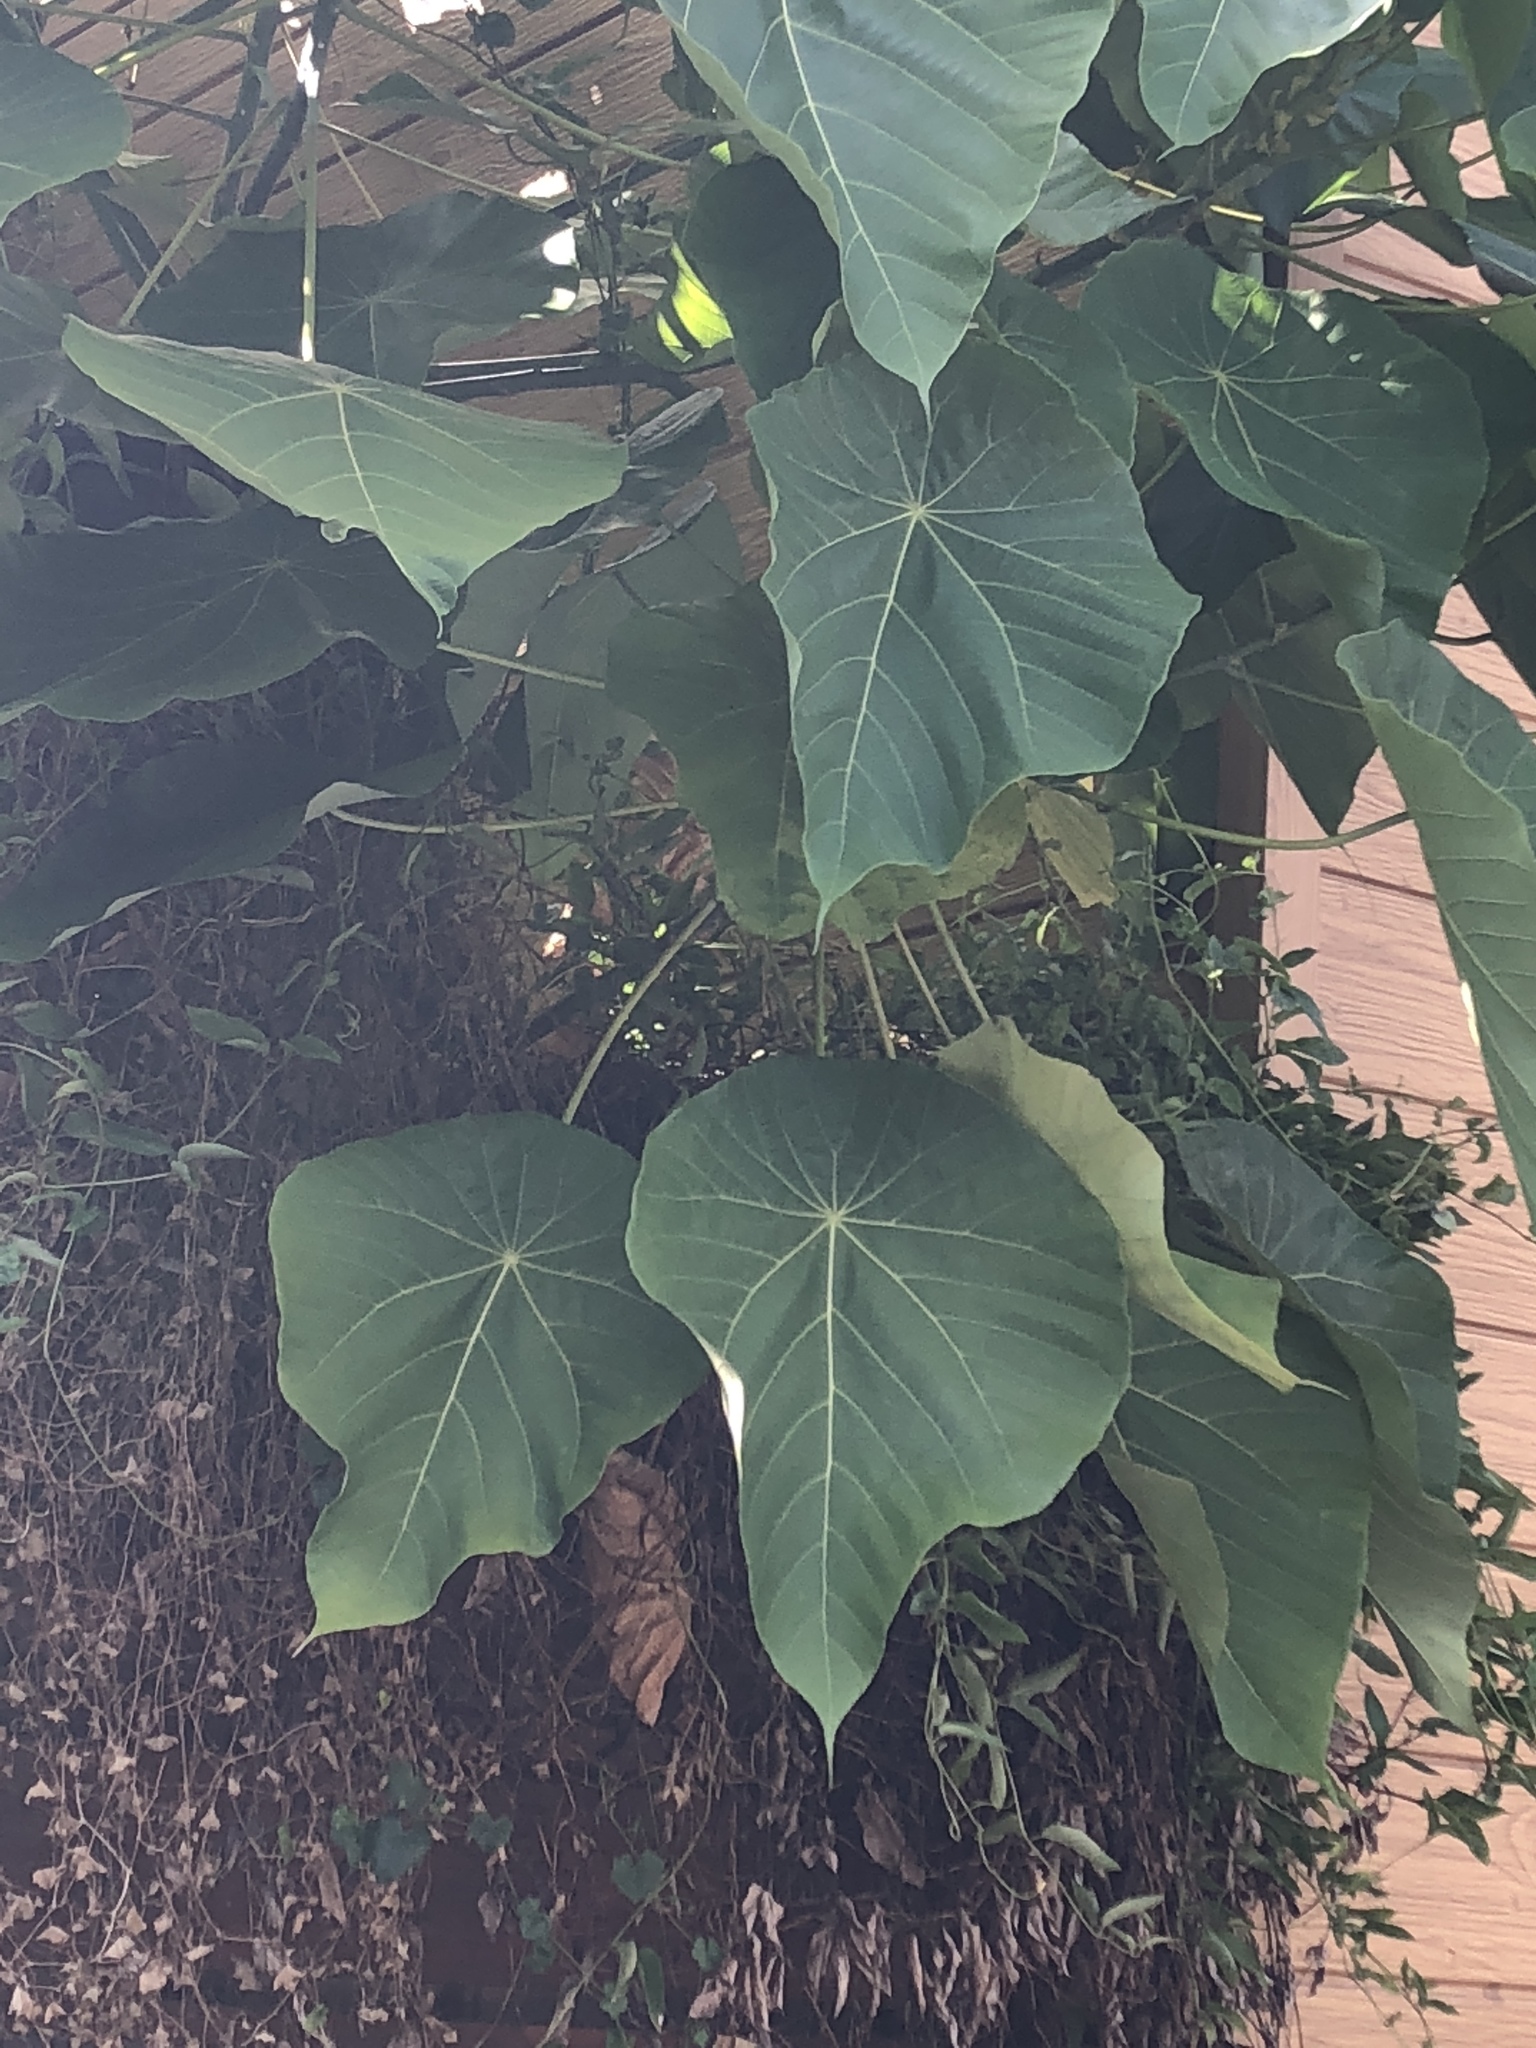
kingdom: Plantae
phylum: Tracheophyta
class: Magnoliopsida
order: Malpighiales
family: Euphorbiaceae
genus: Macaranga
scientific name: Macaranga tanarius
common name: Parasol leaf tree
